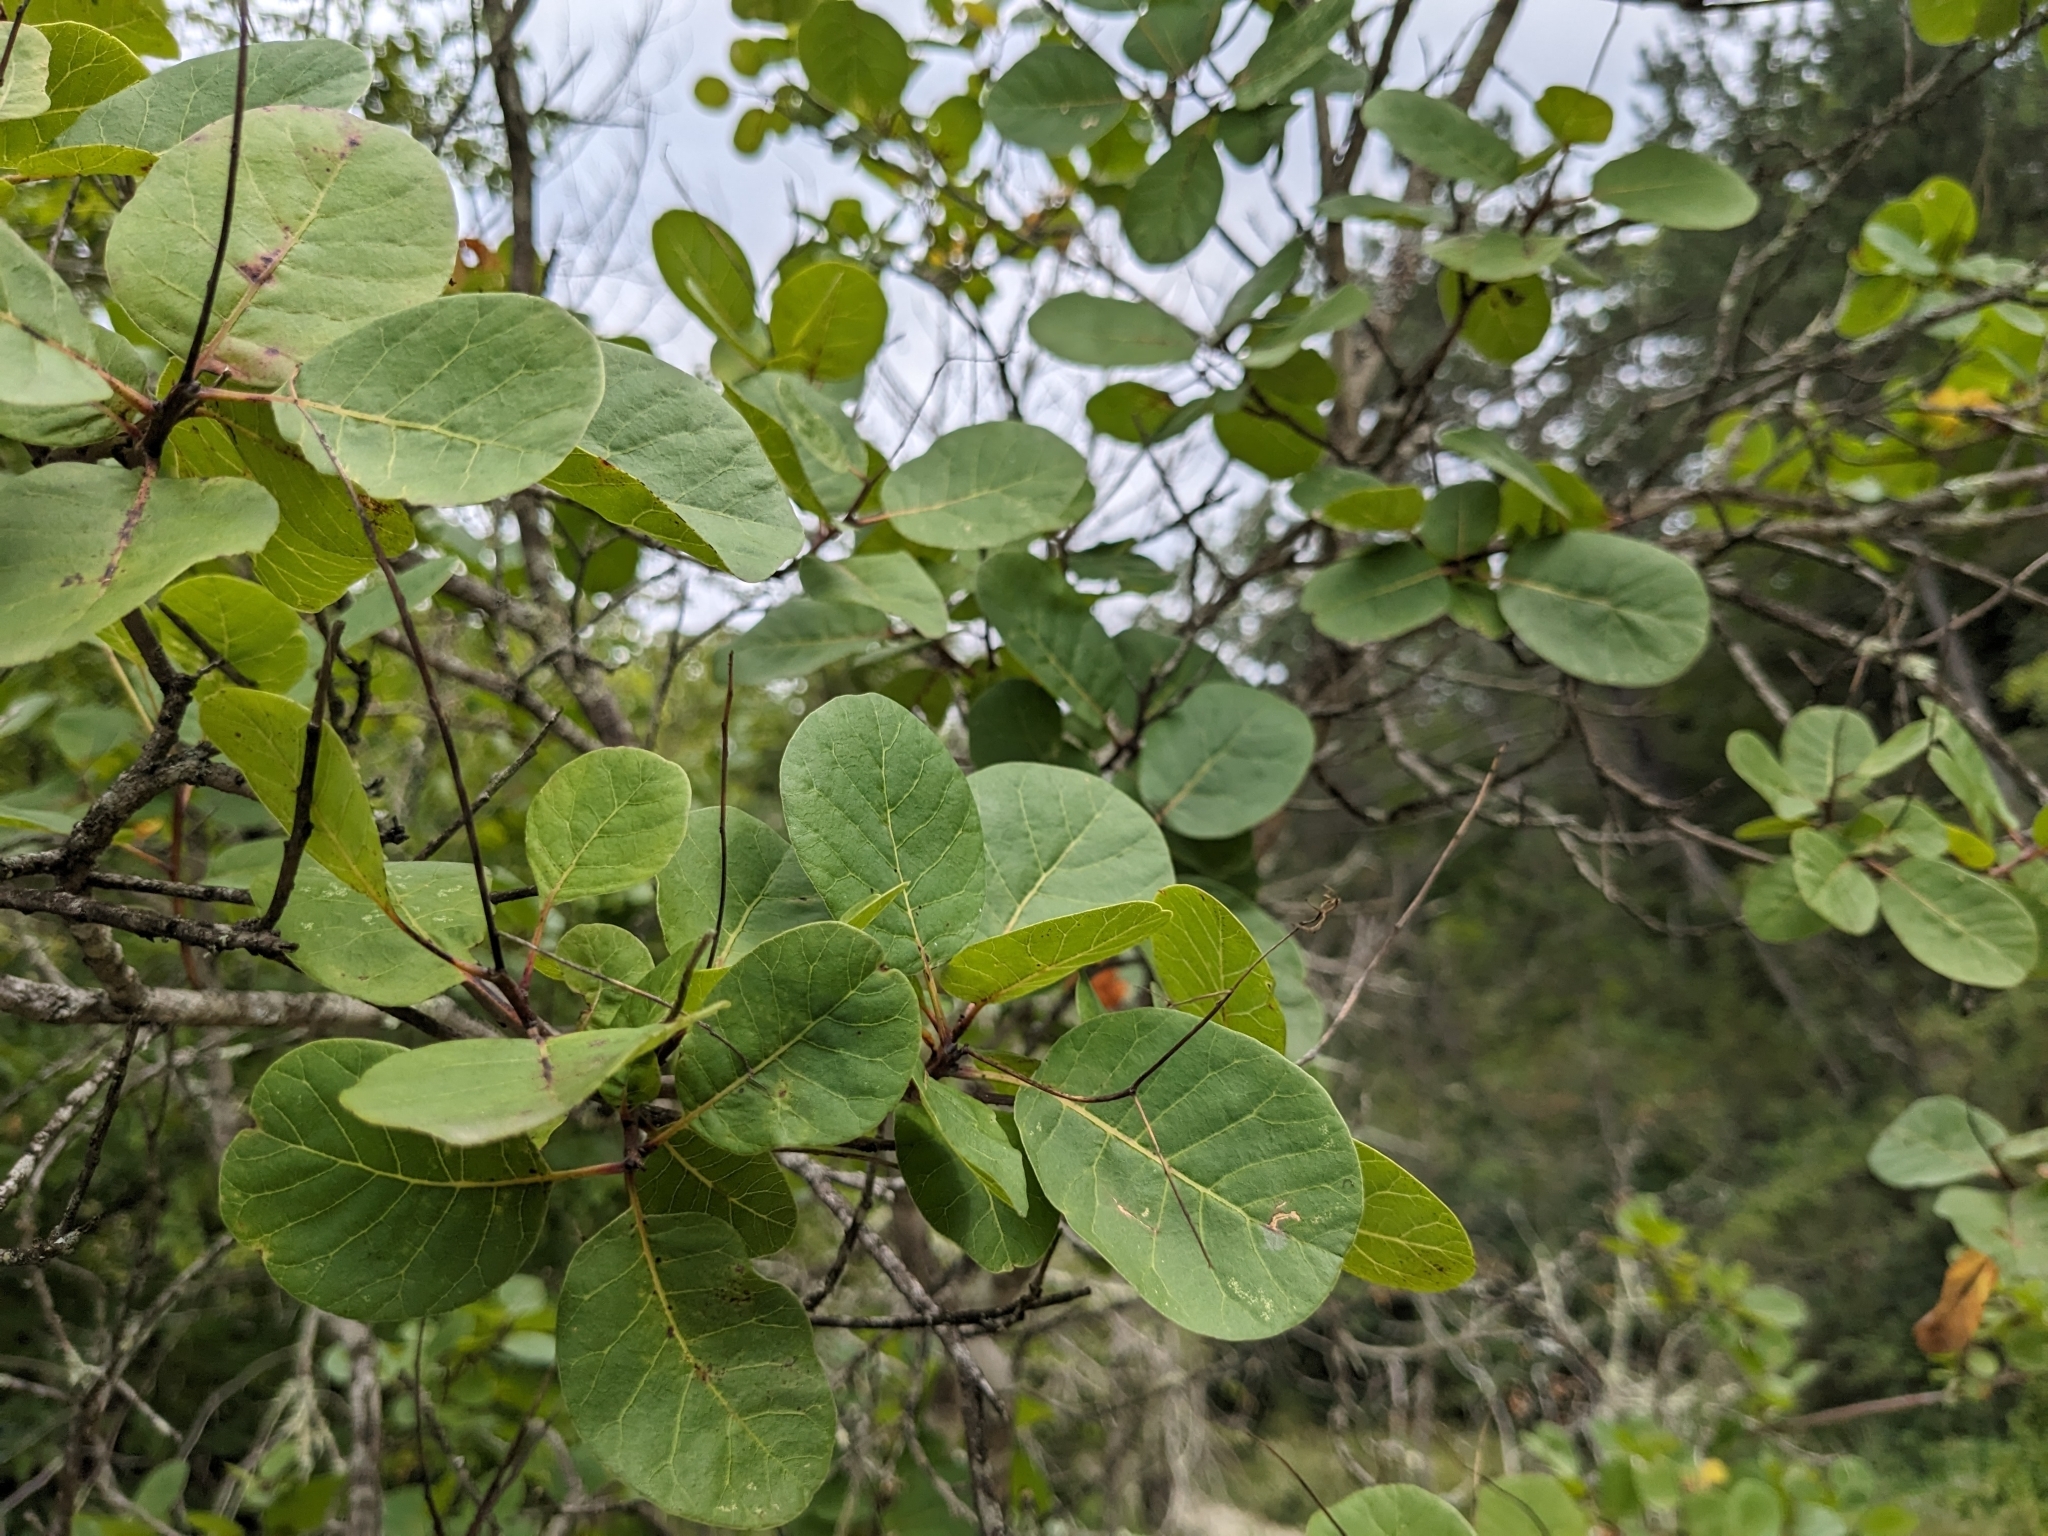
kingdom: Plantae
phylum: Tracheophyta
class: Magnoliopsida
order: Sapindales
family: Anacardiaceae
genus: Cotinus
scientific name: Cotinus coggygria
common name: Smoke-tree
